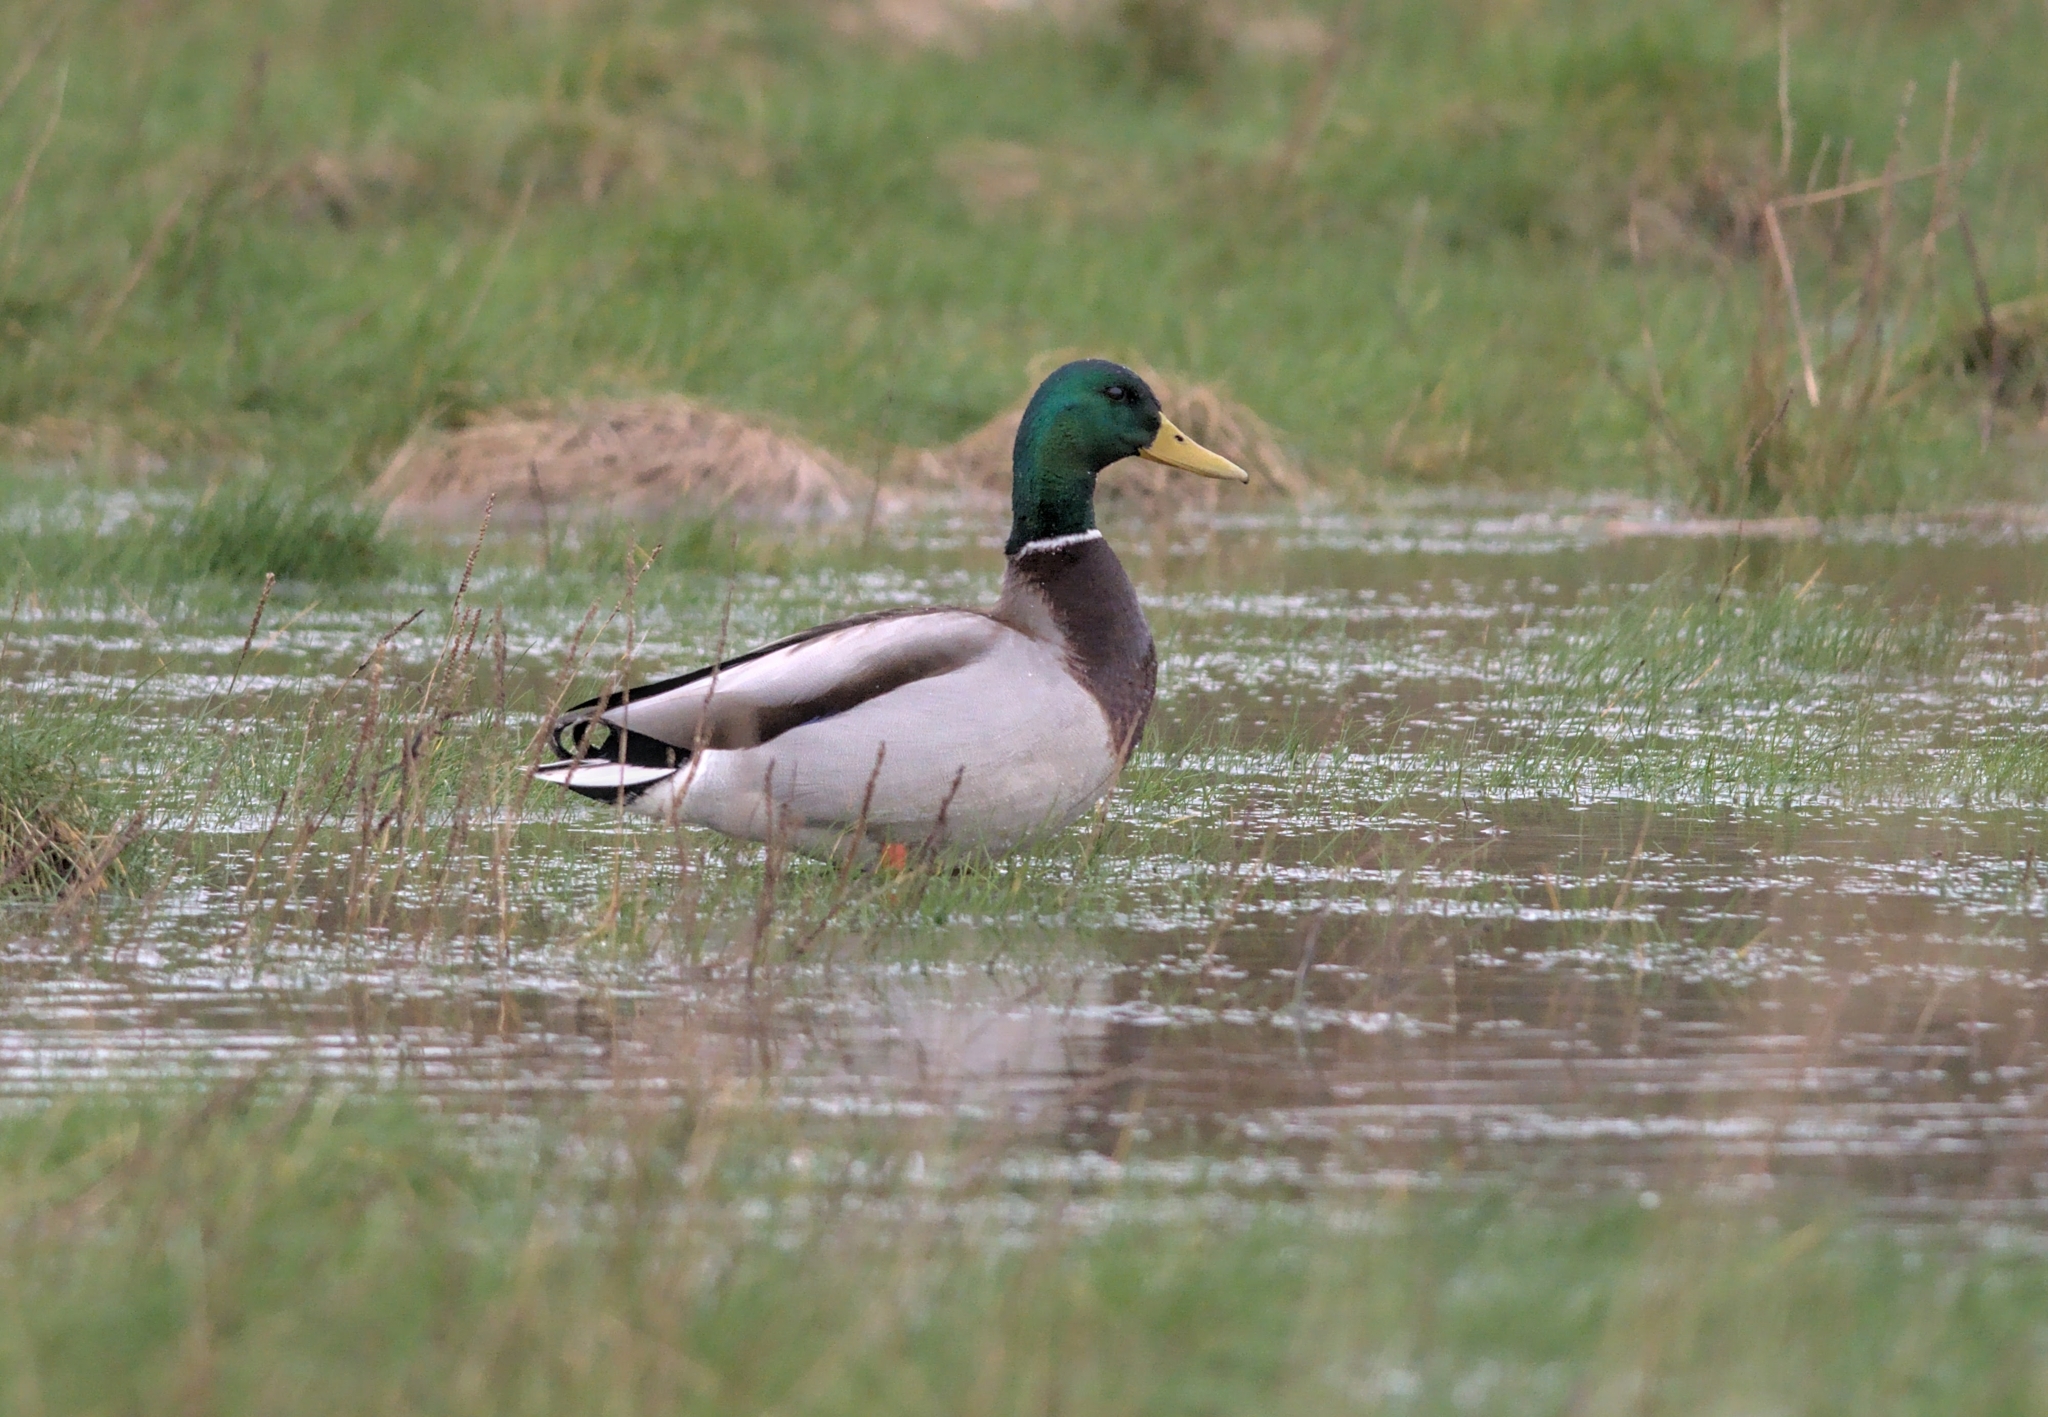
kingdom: Animalia
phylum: Chordata
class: Aves
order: Anseriformes
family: Anatidae
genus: Anas
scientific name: Anas platyrhynchos
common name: Mallard
